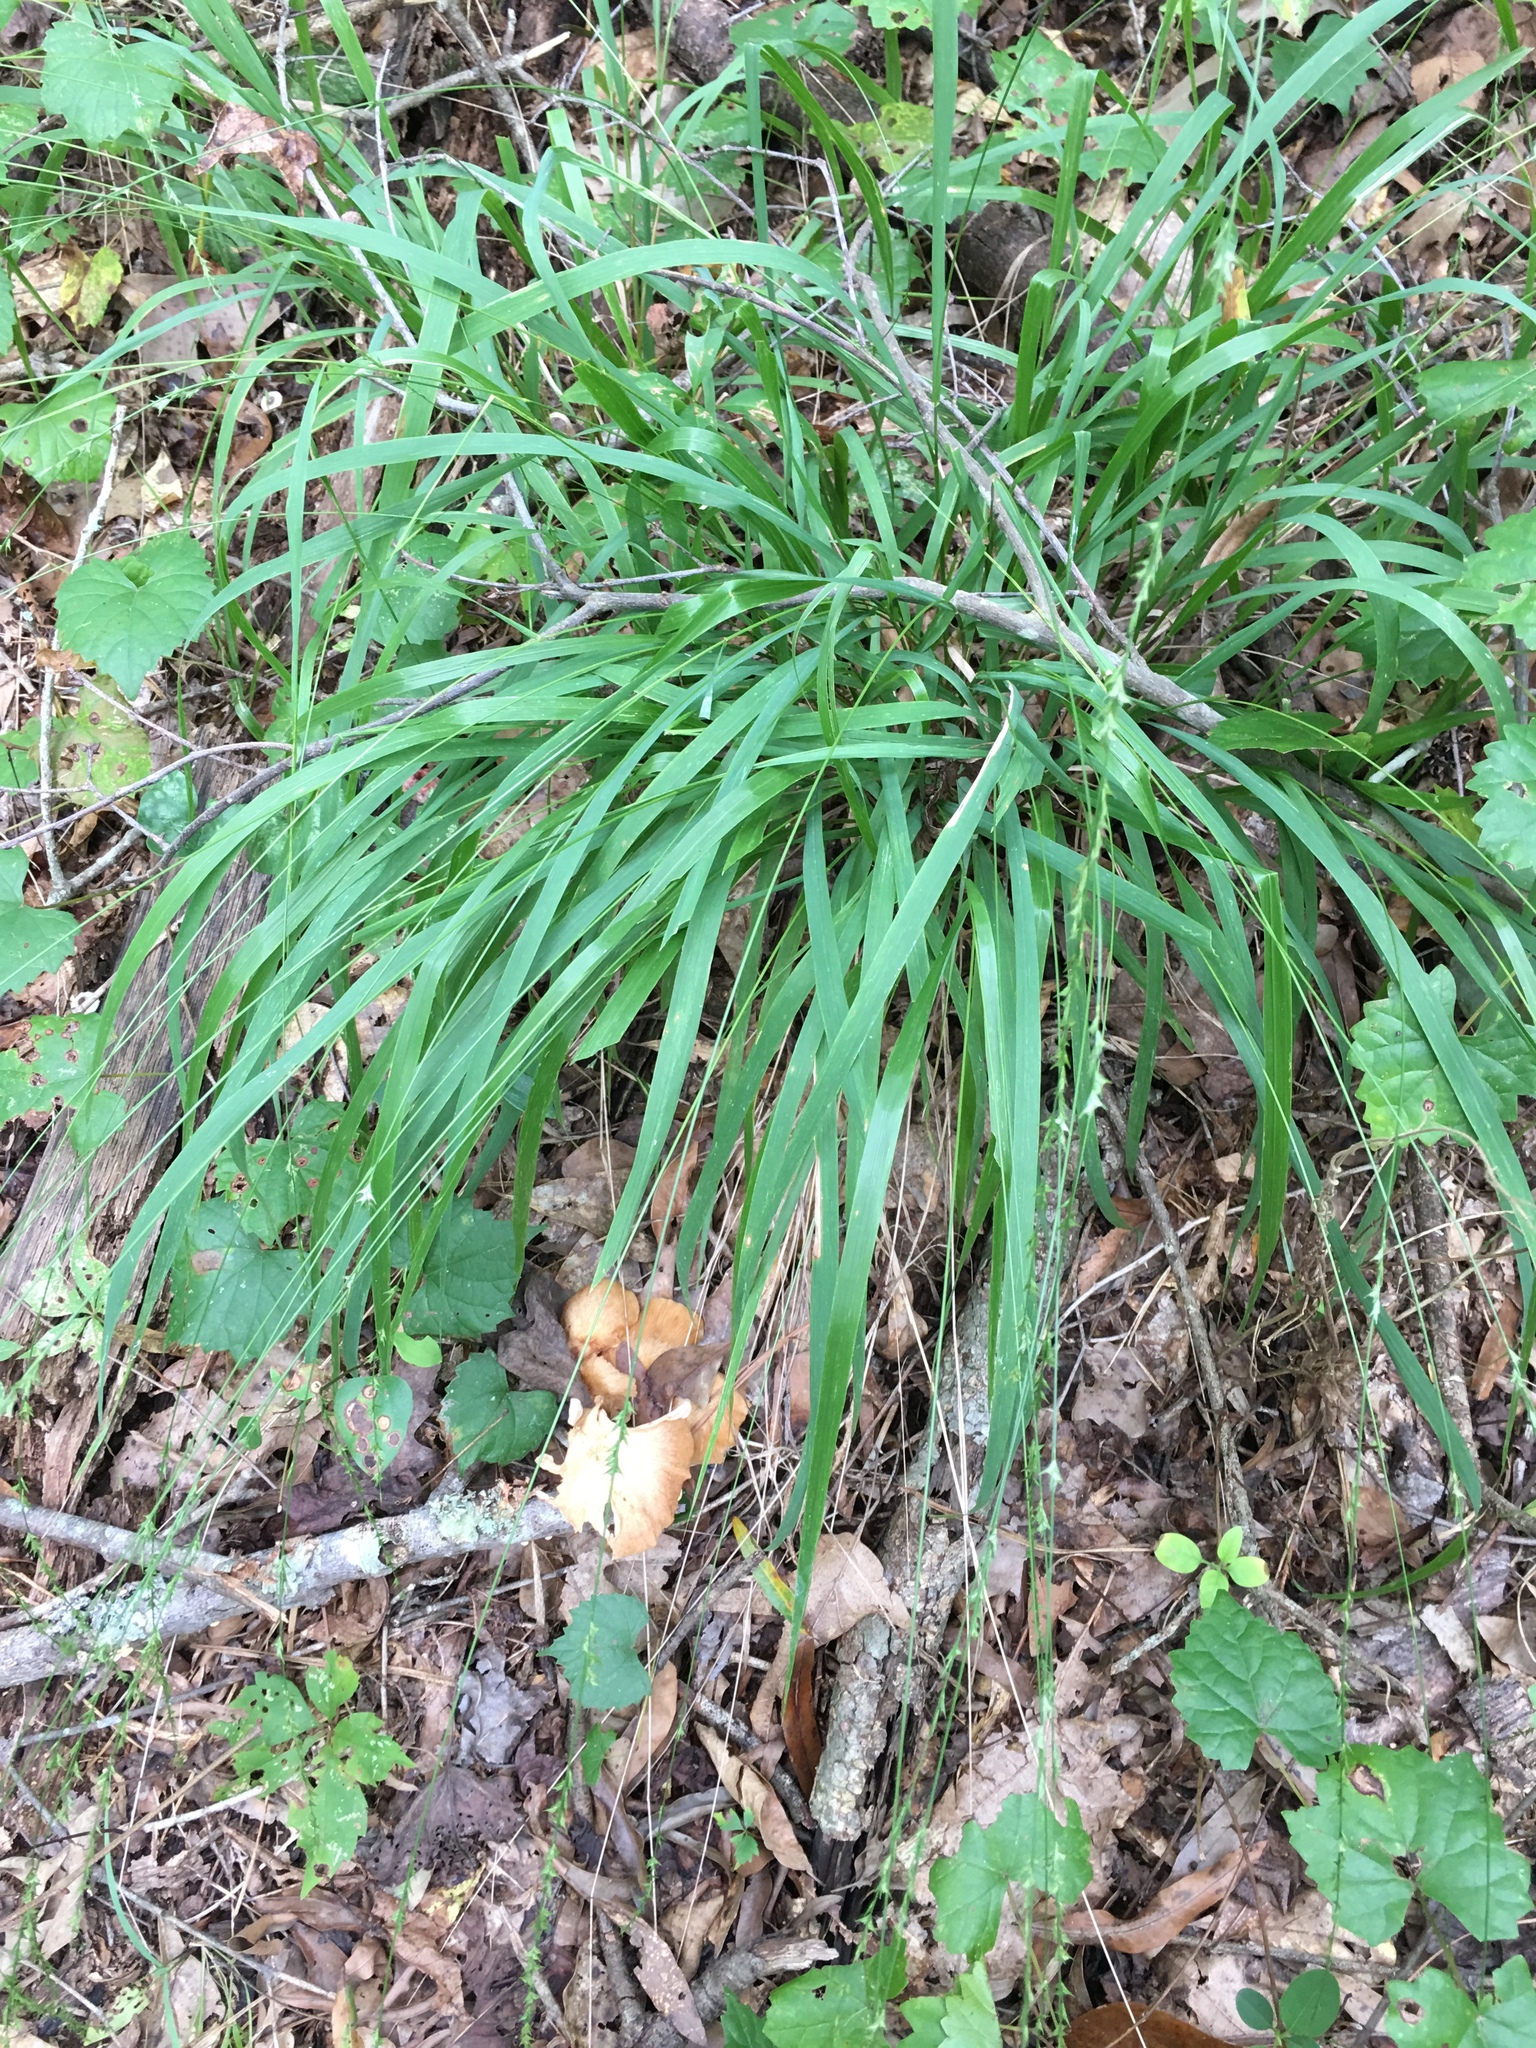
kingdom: Plantae
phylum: Tracheophyta
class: Liliopsida
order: Poales
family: Poaceae
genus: Chasmanthium
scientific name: Chasmanthium laxum
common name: Slender chasmanthium
